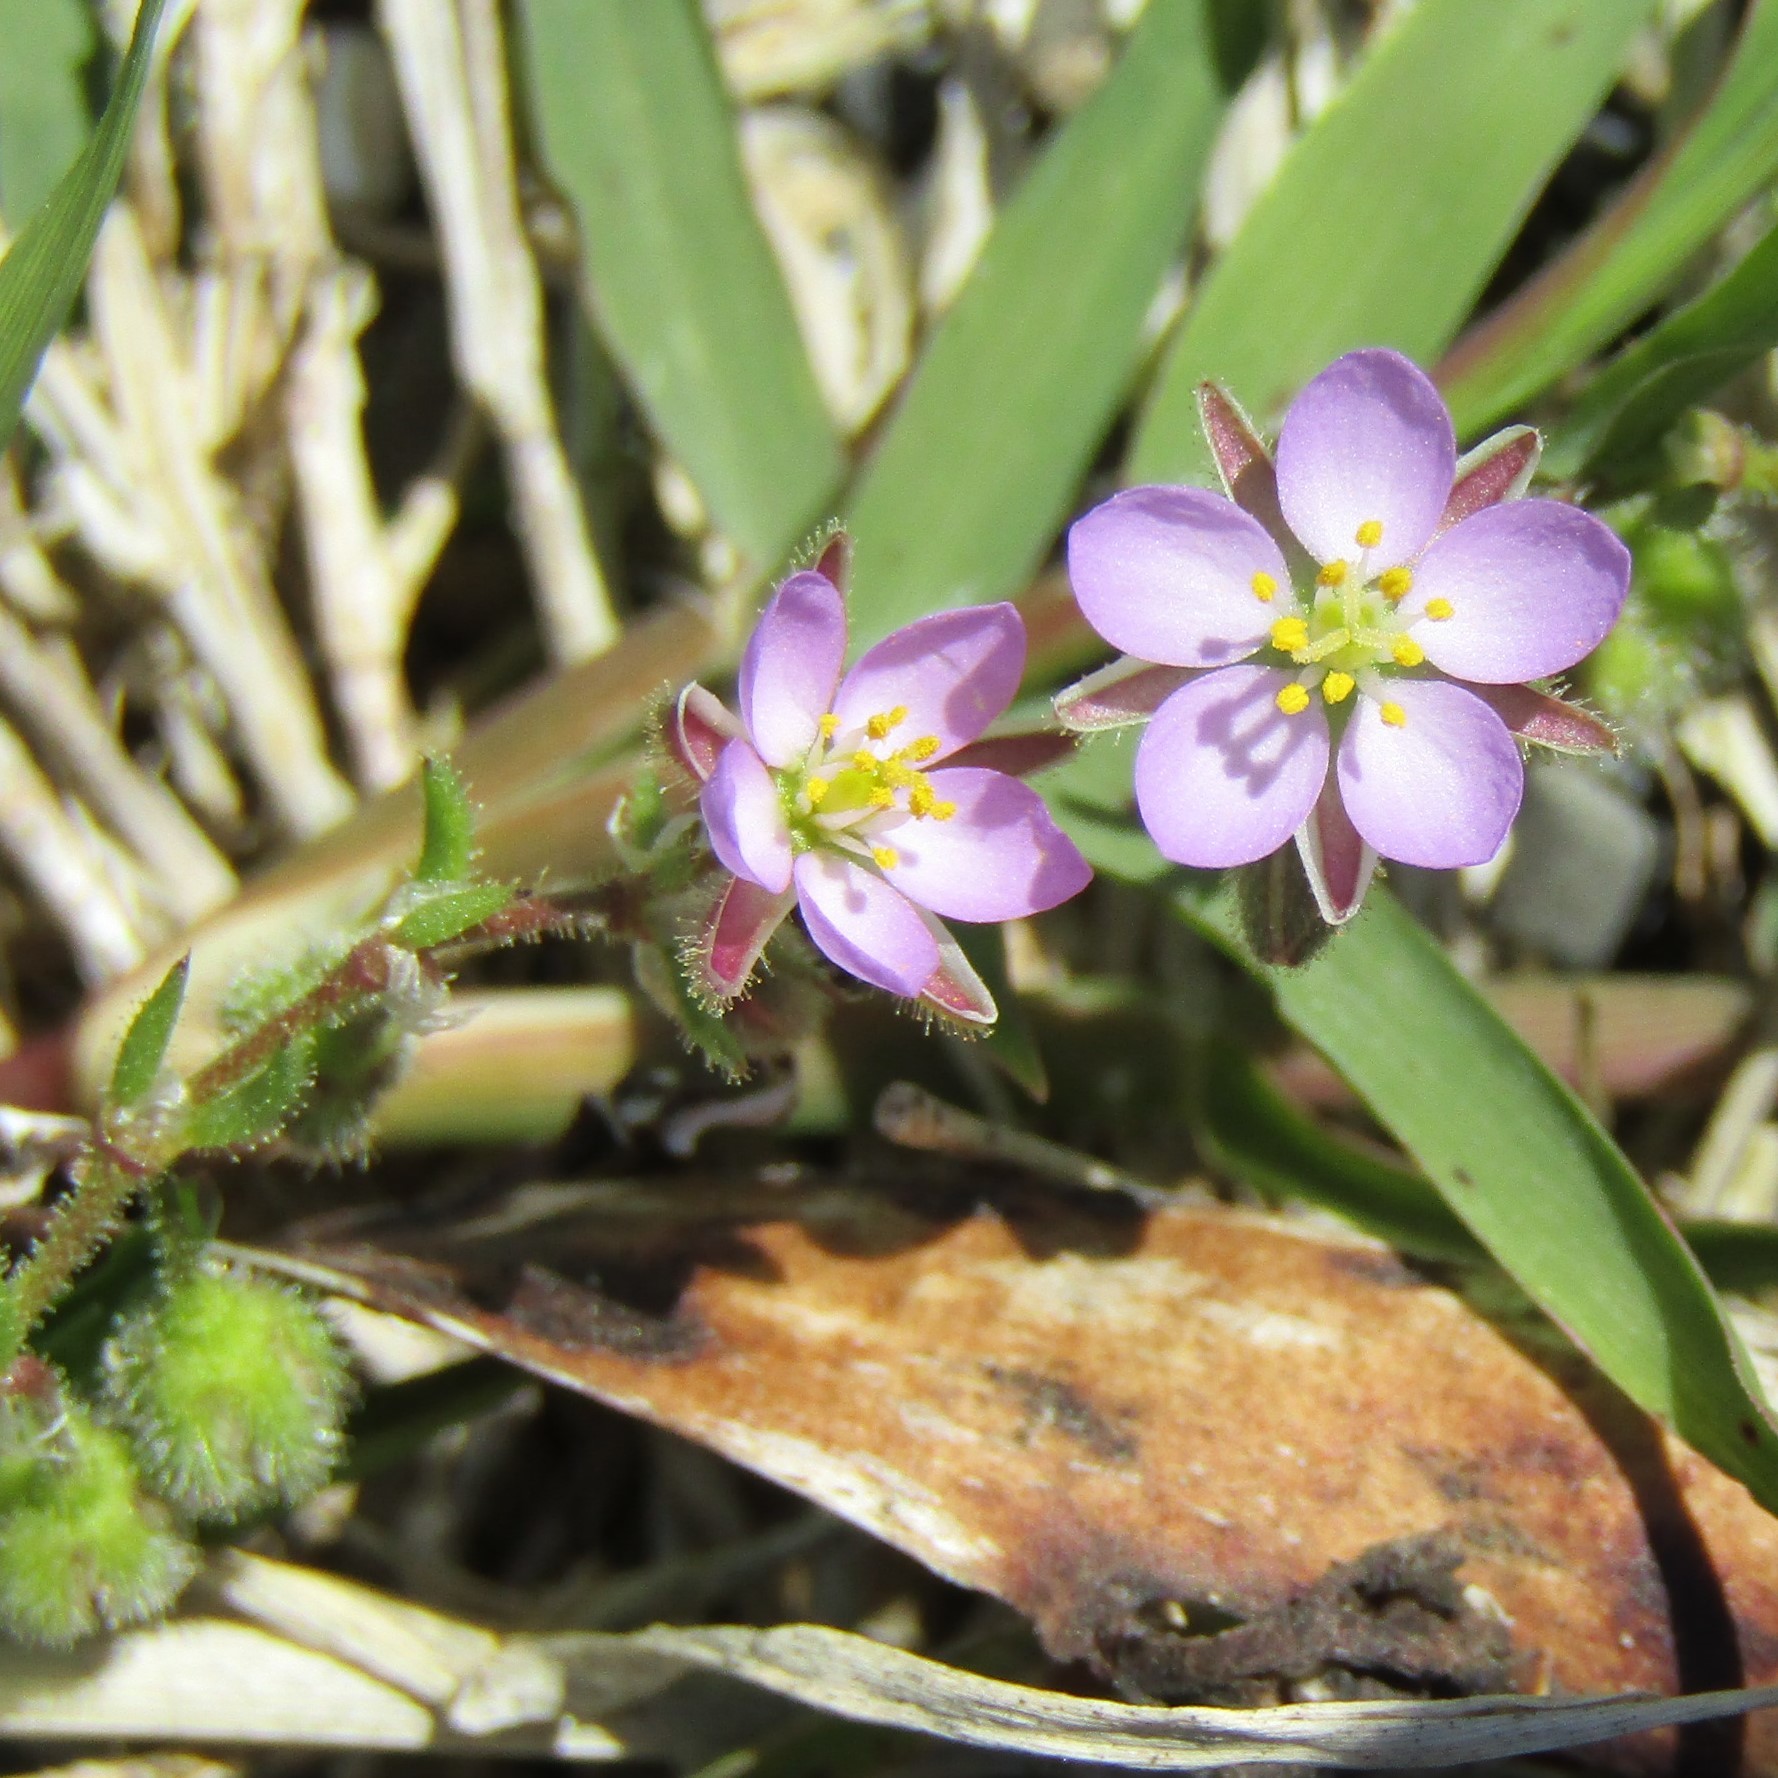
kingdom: Plantae
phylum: Tracheophyta
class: Magnoliopsida
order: Caryophyllales
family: Caryophyllaceae
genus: Spergularia
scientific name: Spergularia rubra
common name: Red sand-spurrey
